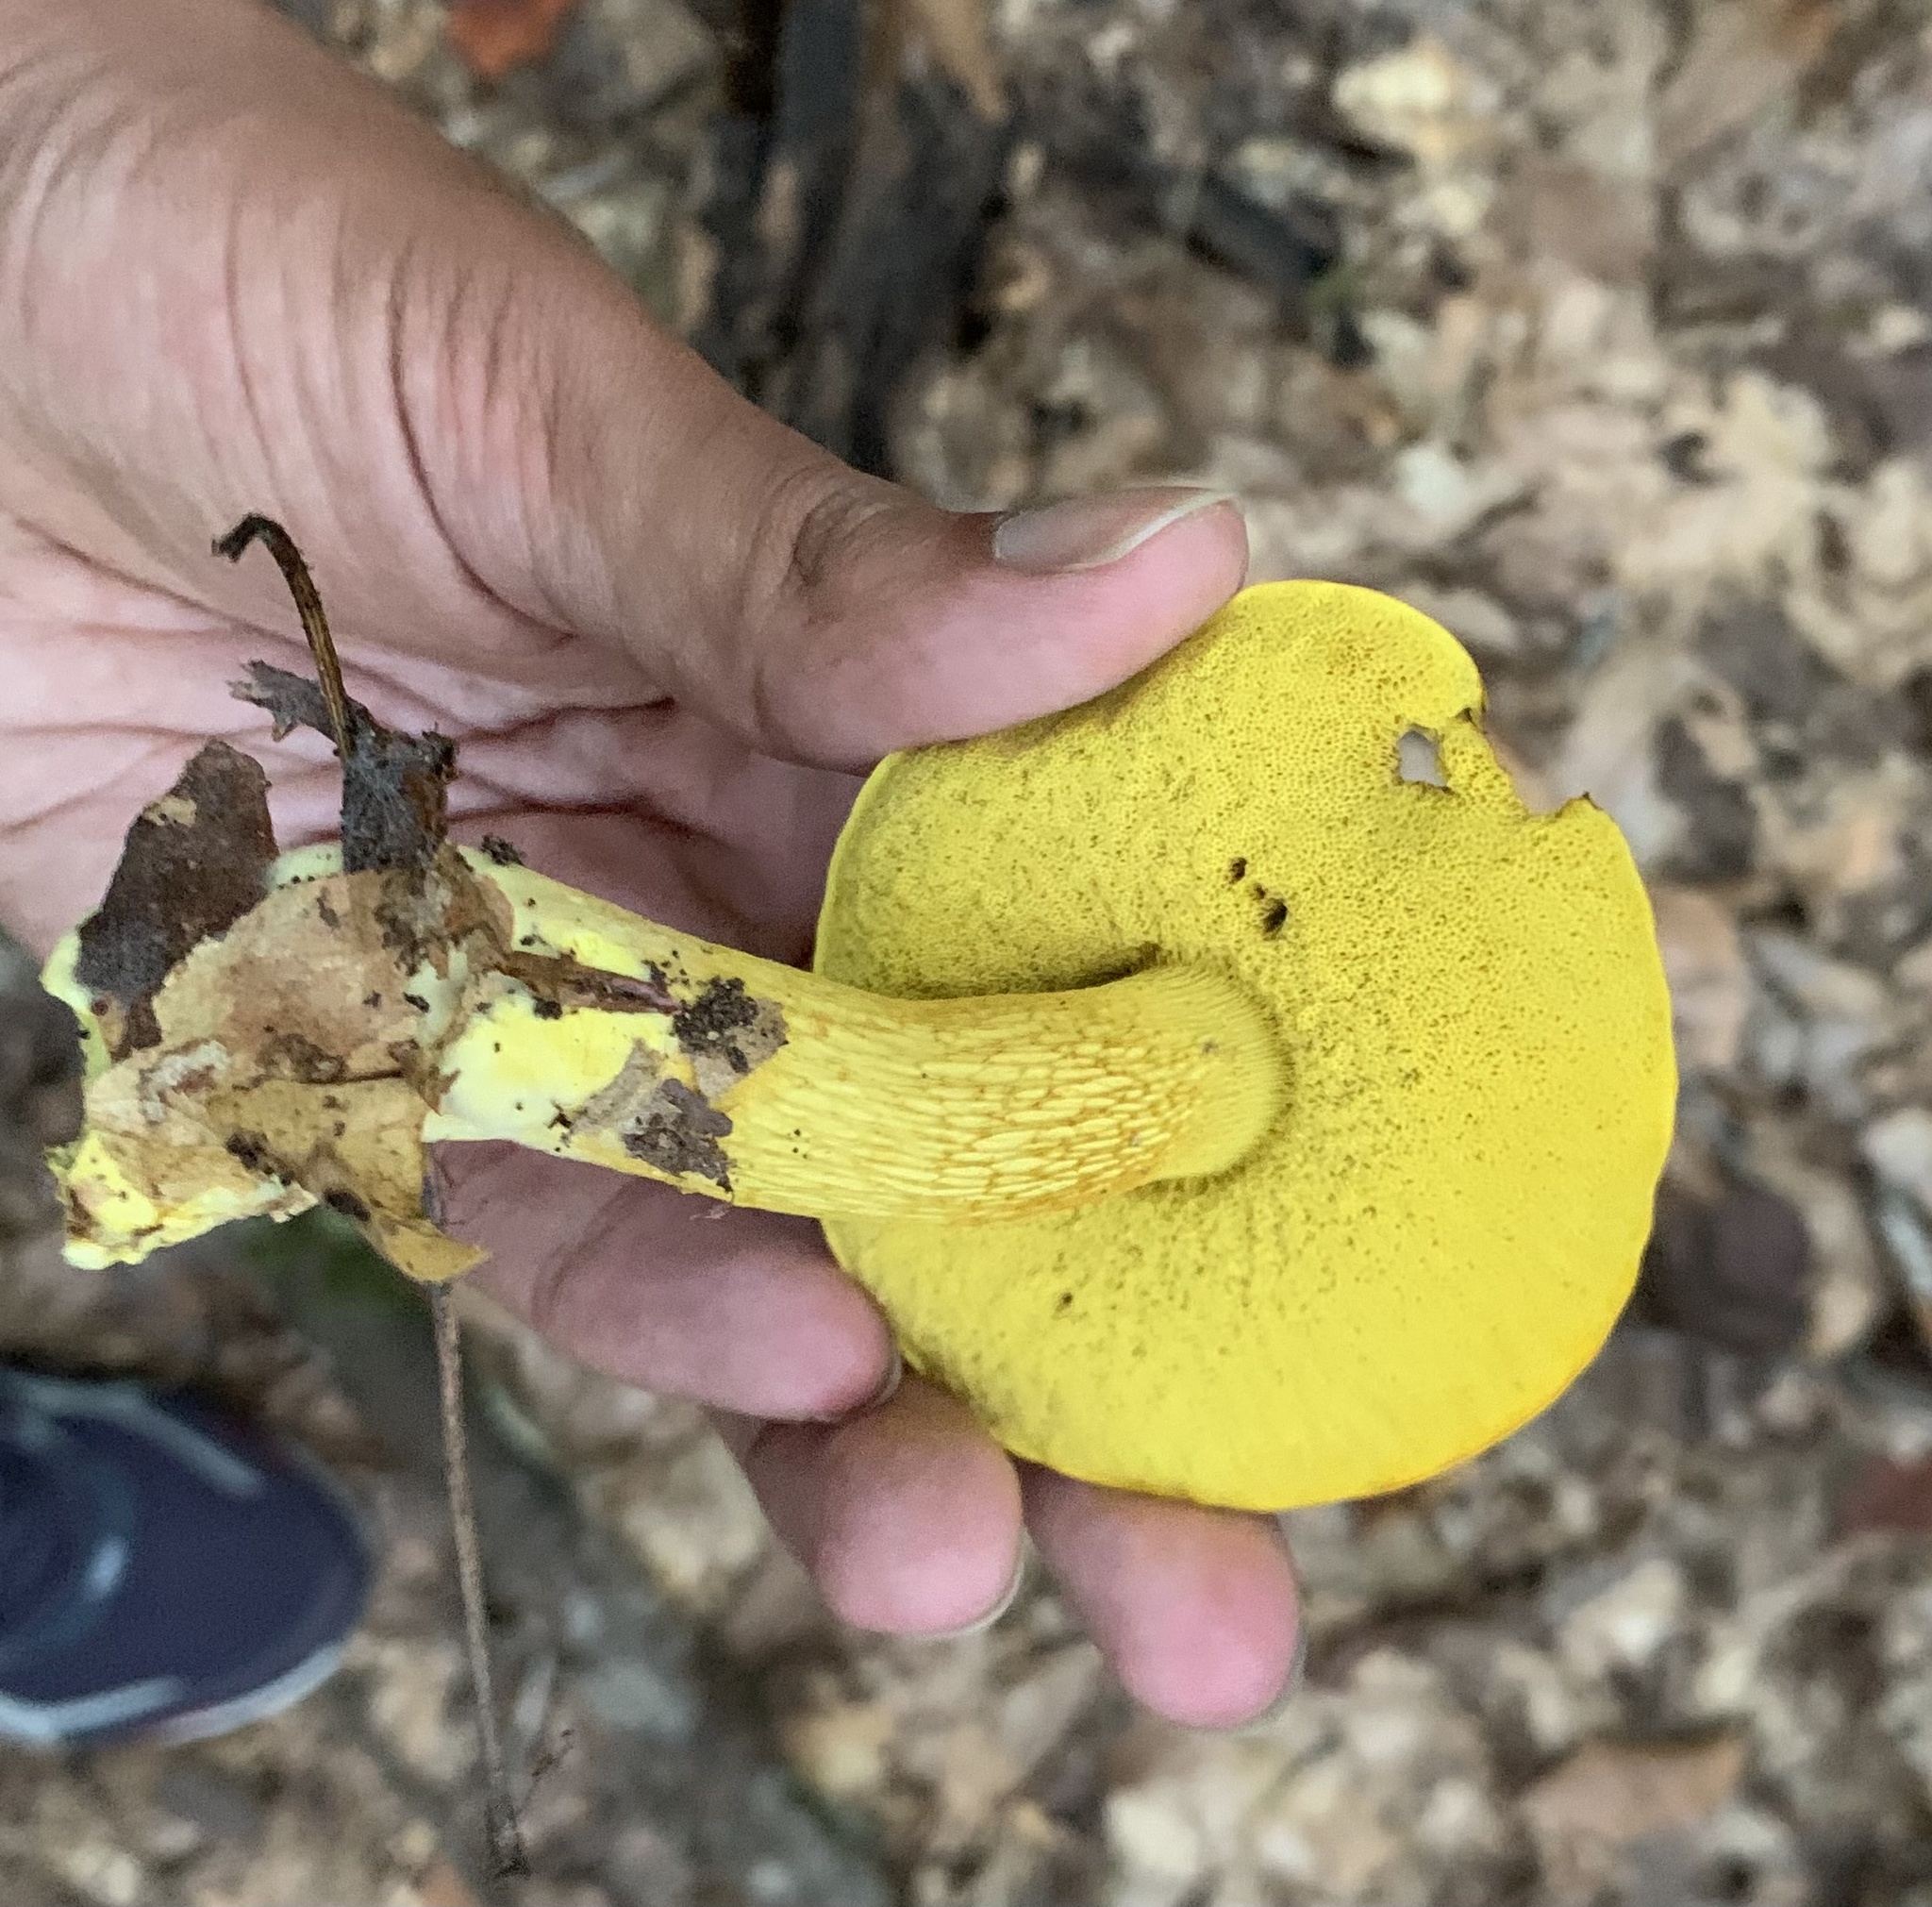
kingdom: Fungi
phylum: Basidiomycota
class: Agaricomycetes
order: Boletales
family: Boletaceae
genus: Retiboletus
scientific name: Retiboletus ornatipes
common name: Ornate-stalked bolete
